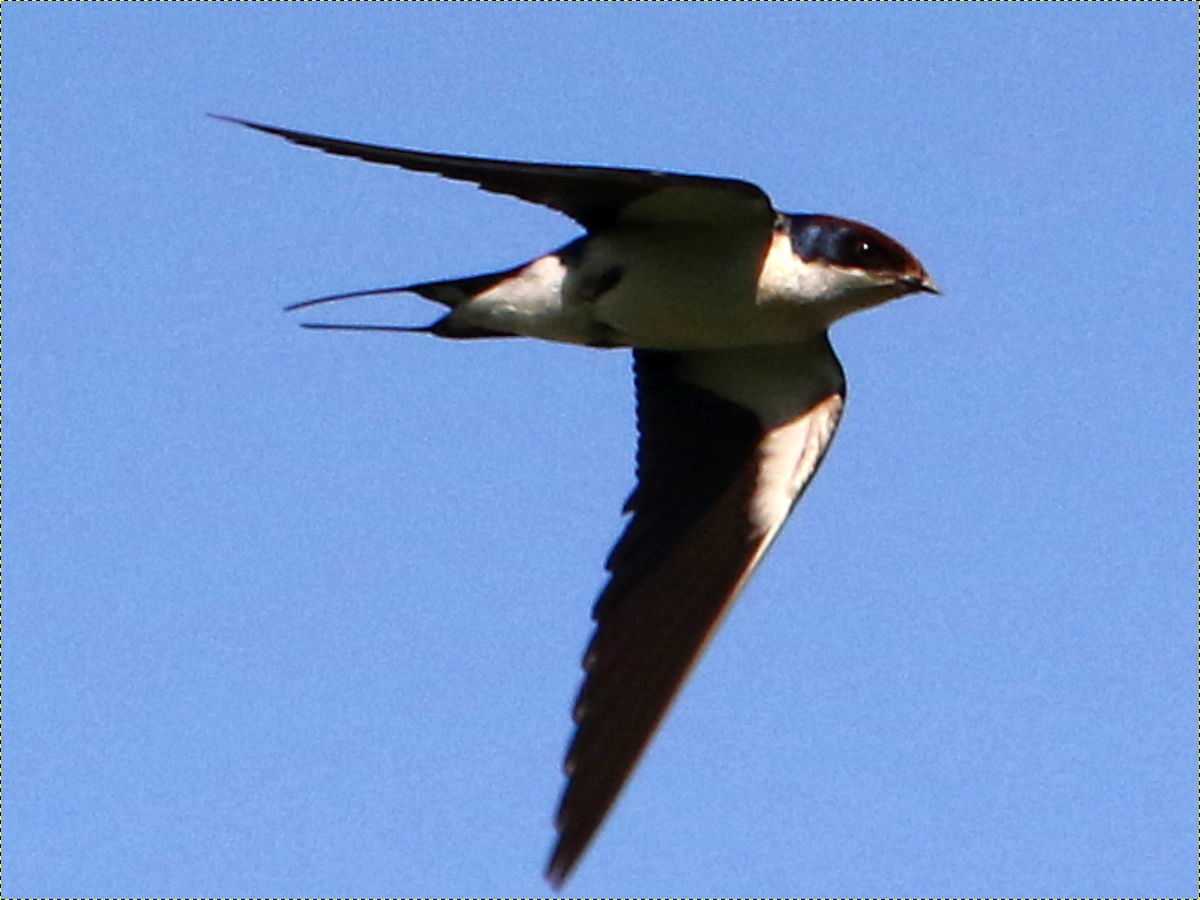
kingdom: Animalia
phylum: Chordata
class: Aves
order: Passeriformes
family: Hirundinidae
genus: Hirundo
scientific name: Hirundo smithii
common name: Wire-tailed swallow
